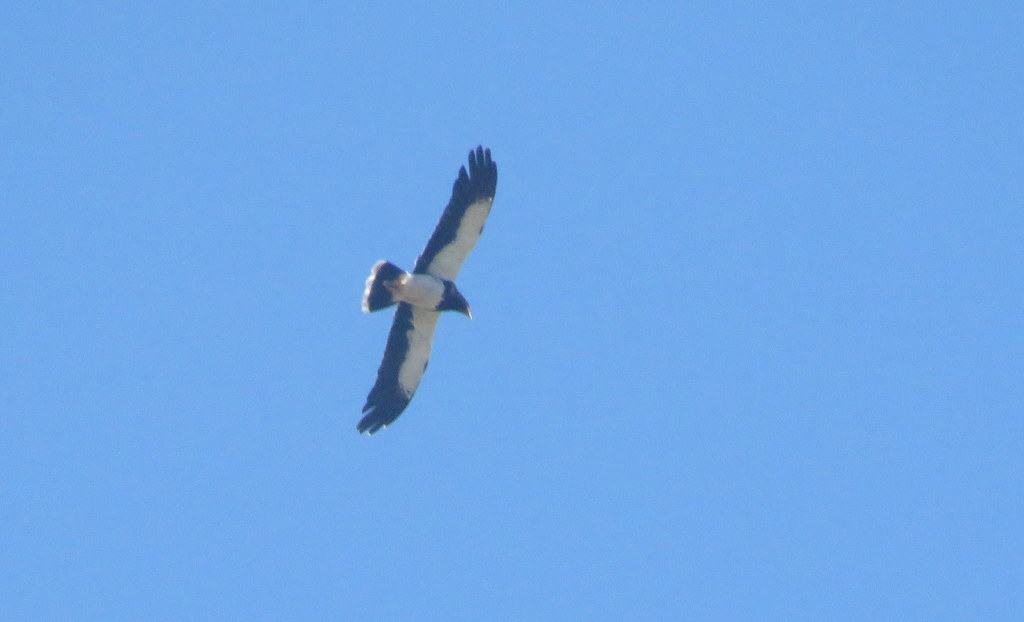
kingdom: Animalia
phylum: Chordata
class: Aves
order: Falconiformes
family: Falconidae
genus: Daptrius
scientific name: Daptrius
